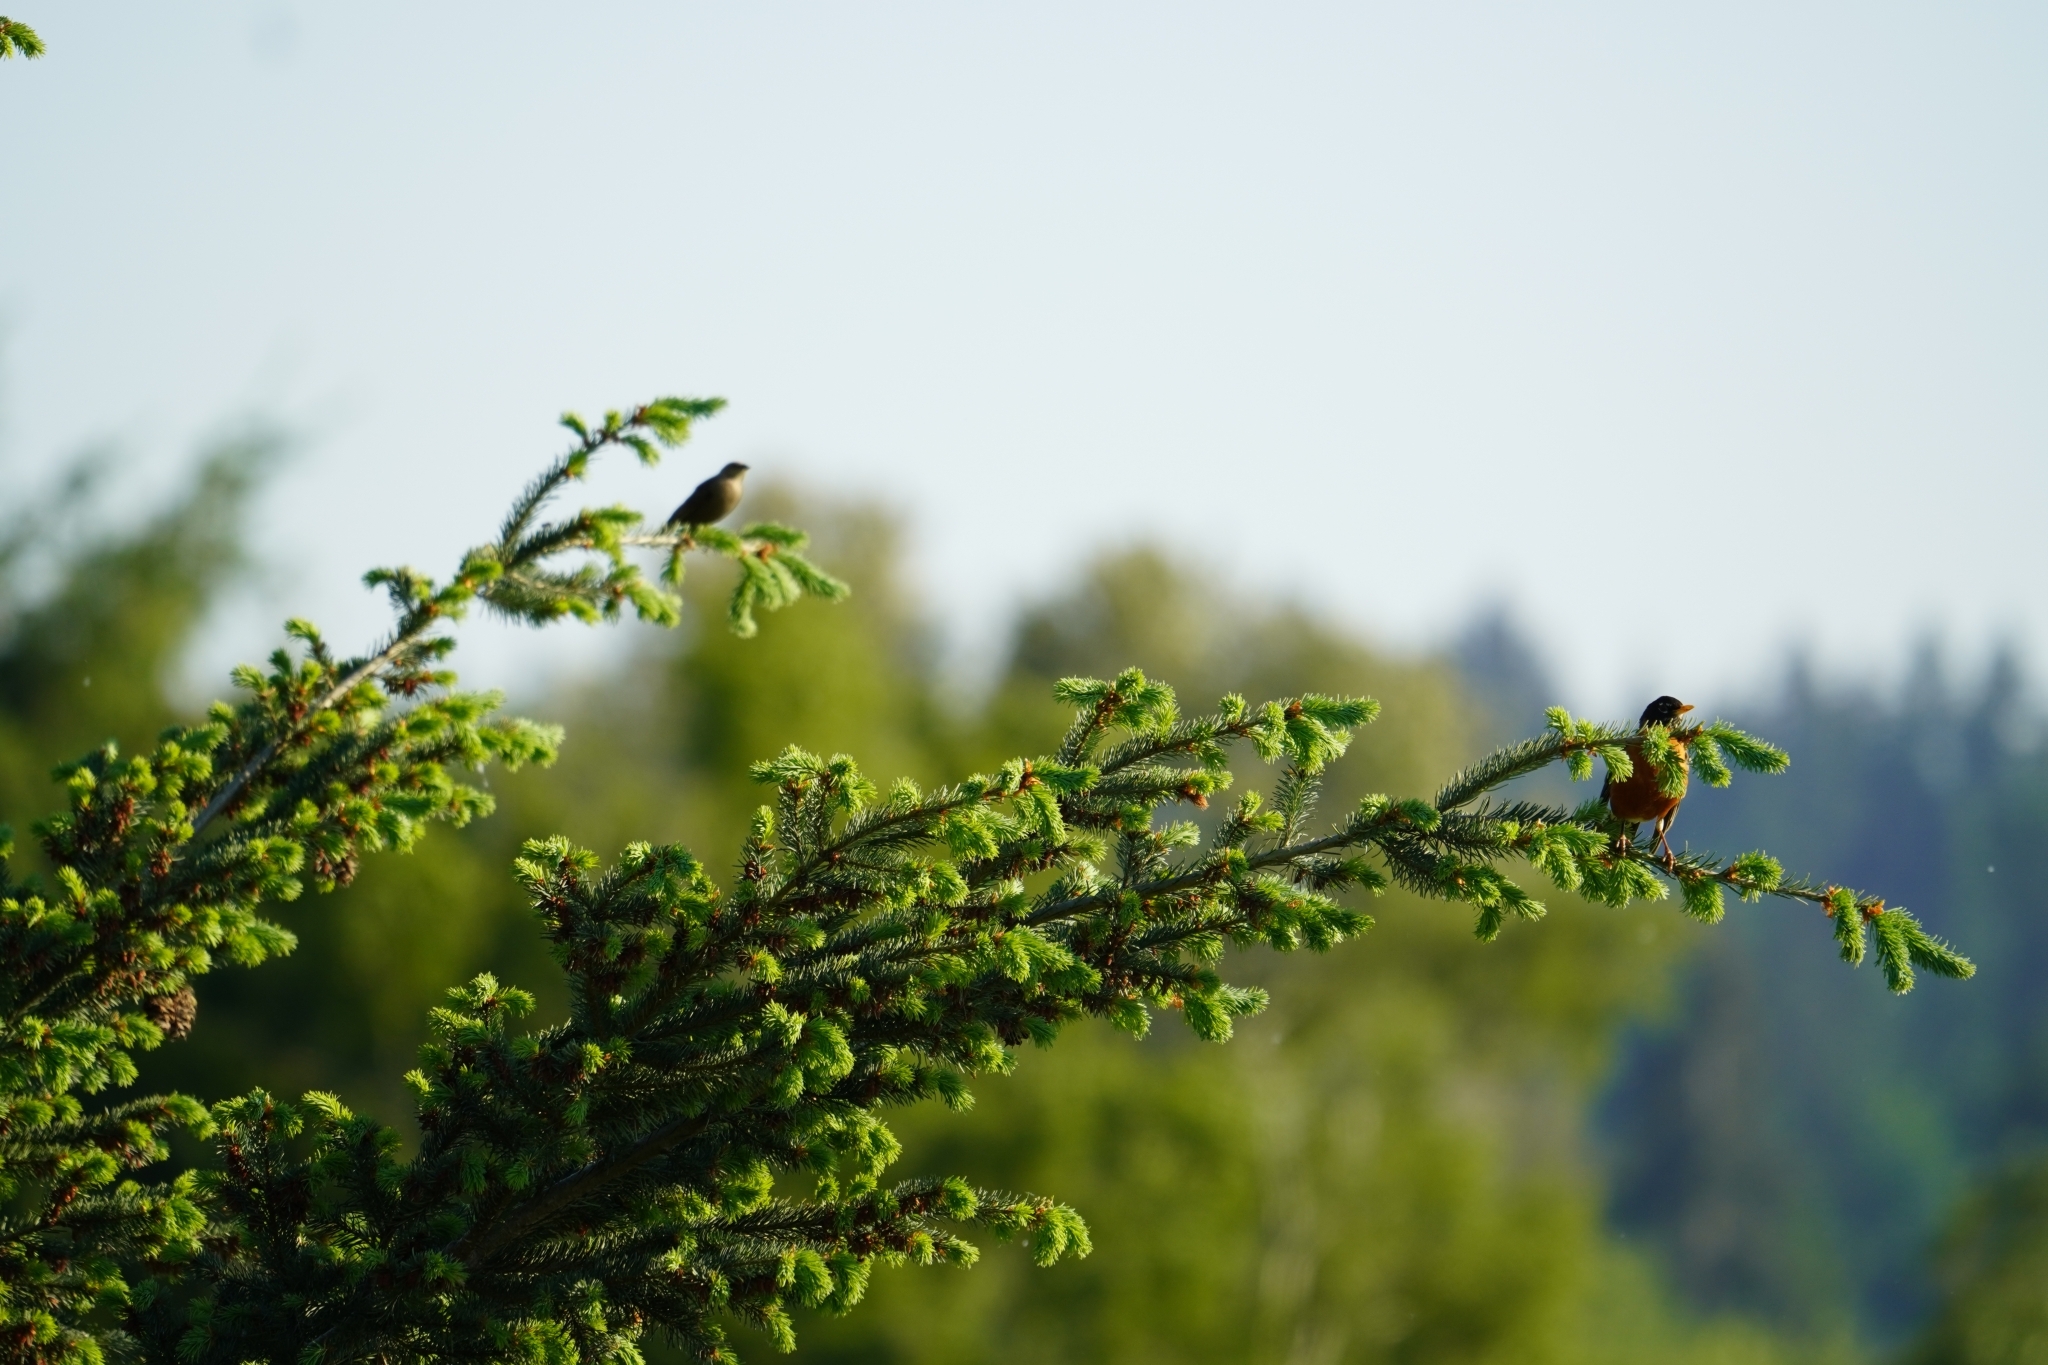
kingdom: Animalia
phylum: Chordata
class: Aves
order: Passeriformes
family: Turdidae
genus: Turdus
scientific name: Turdus migratorius
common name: American robin
